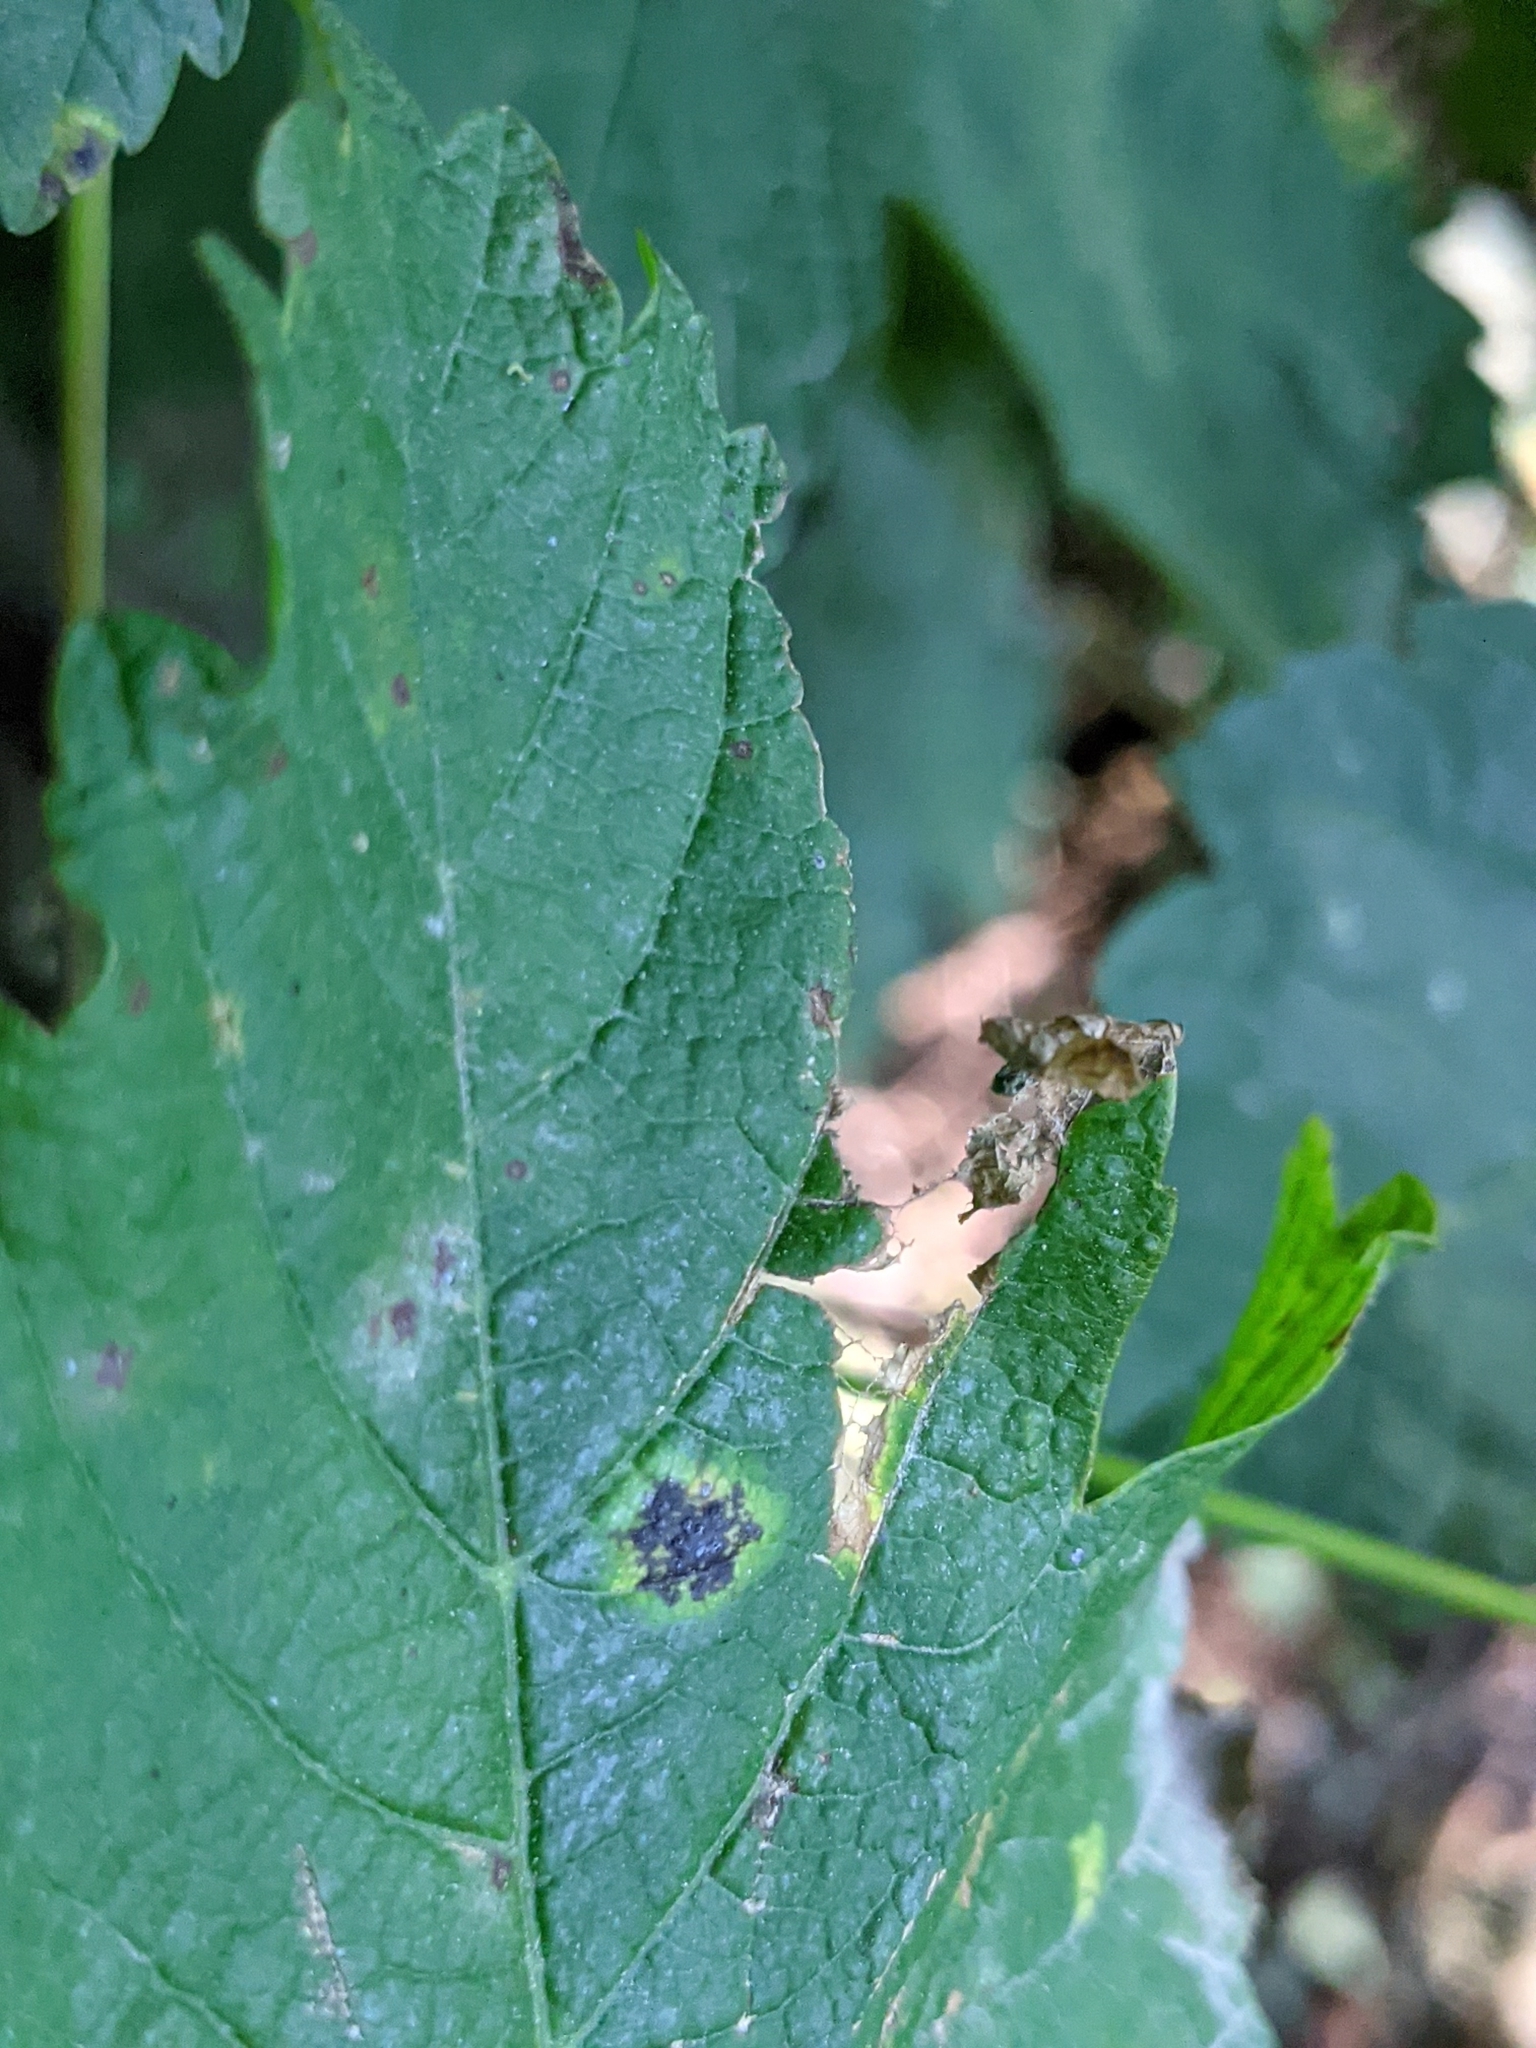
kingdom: Fungi
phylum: Ascomycota
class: Leotiomycetes
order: Rhytismatales
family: Rhytismataceae
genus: Rhytisma
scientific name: Rhytisma acerinum
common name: European tar spot
